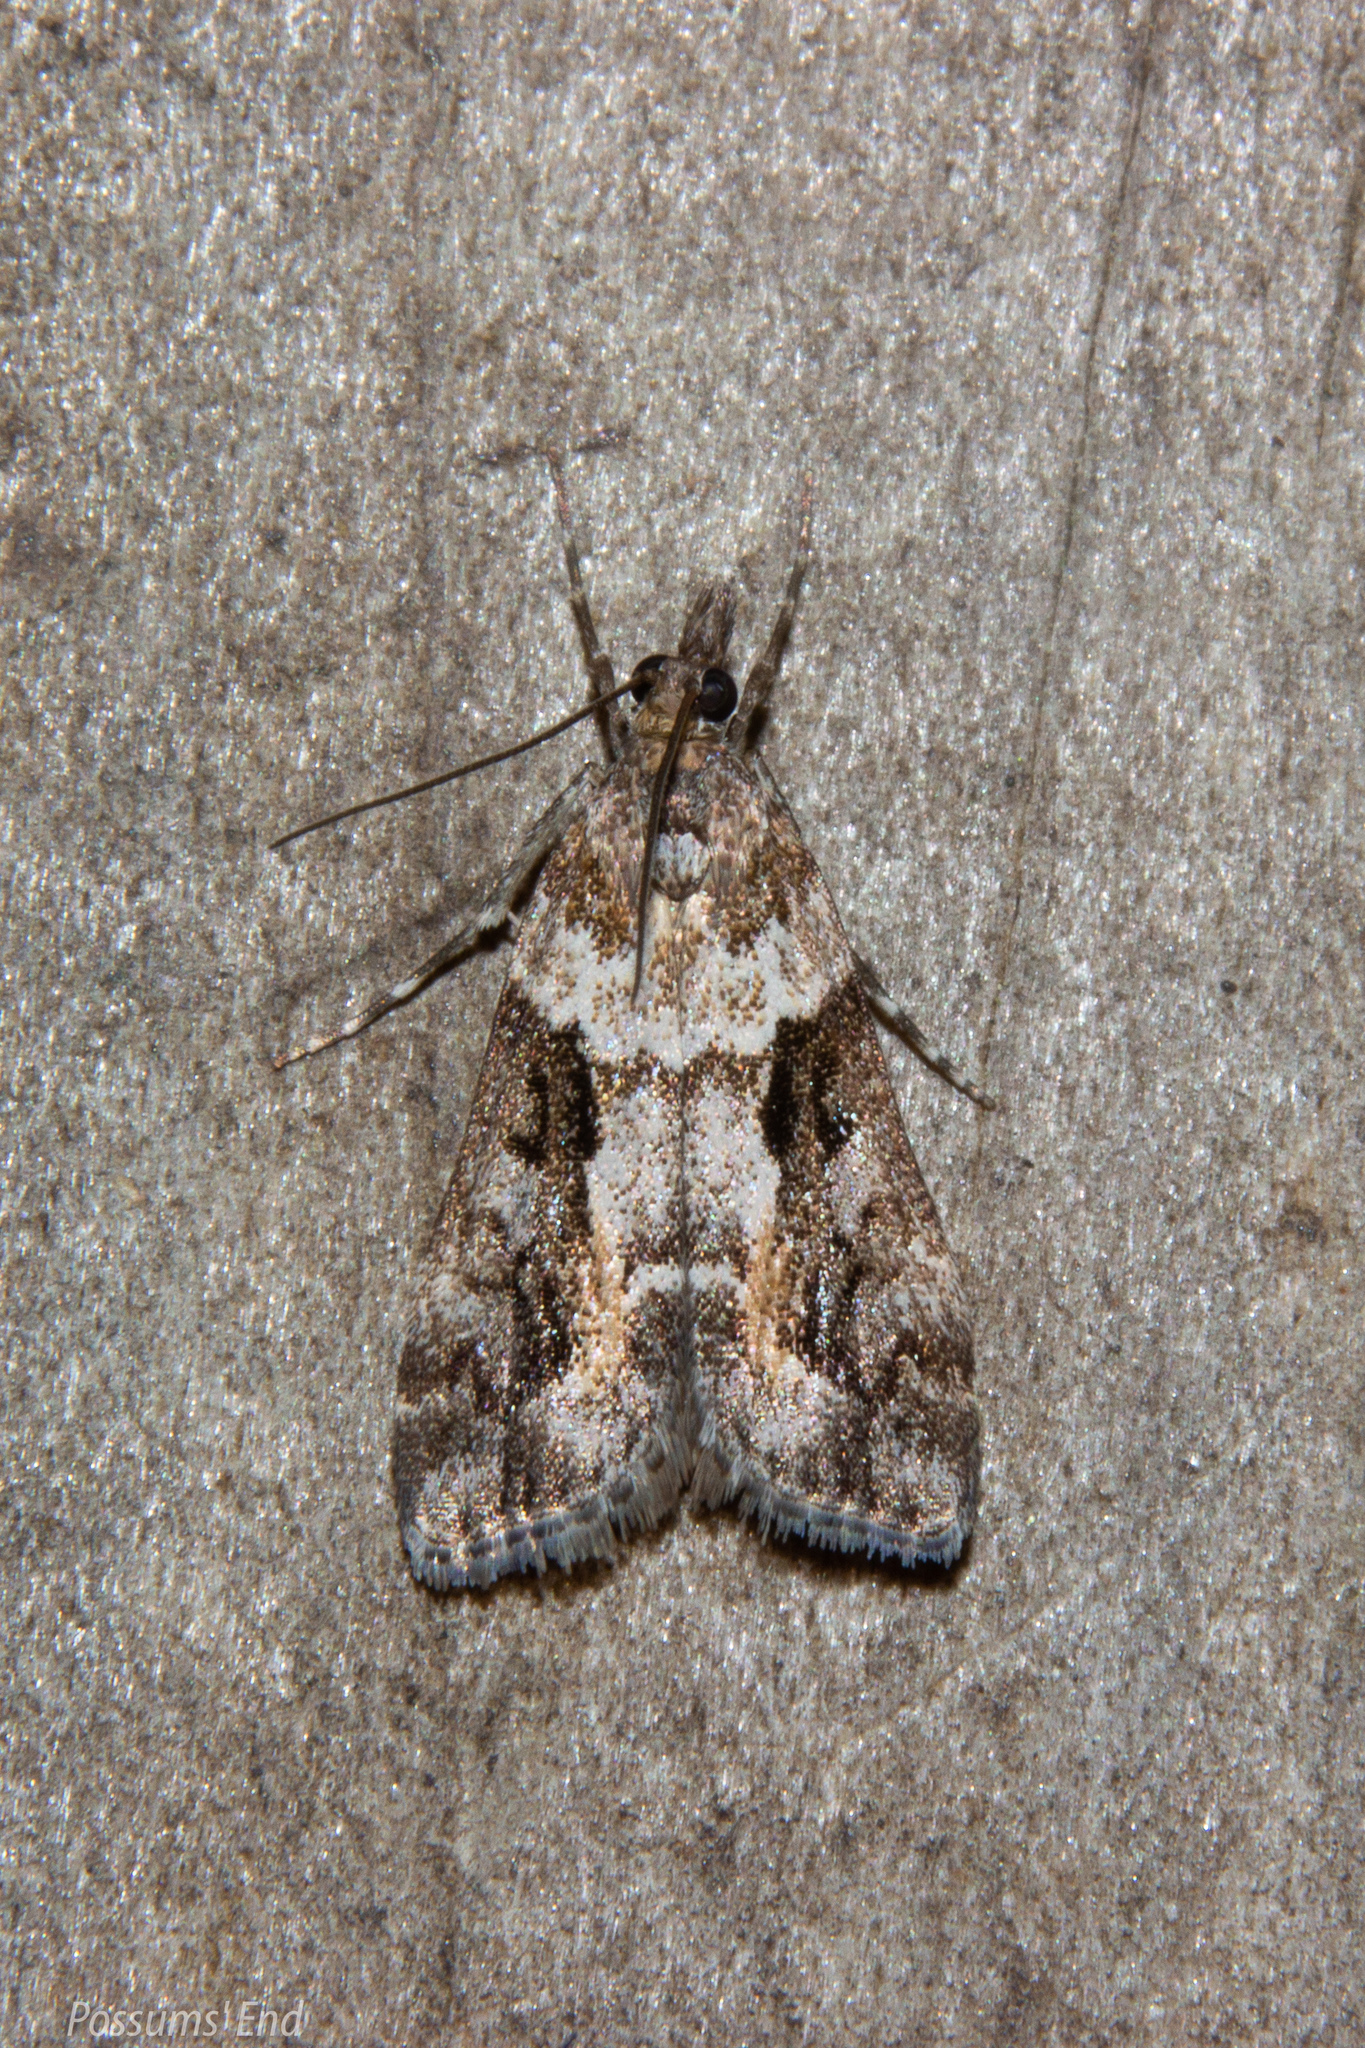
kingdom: Animalia
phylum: Arthropoda
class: Insecta
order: Lepidoptera
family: Crambidae
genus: Eudonia
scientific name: Eudonia submarginalis
